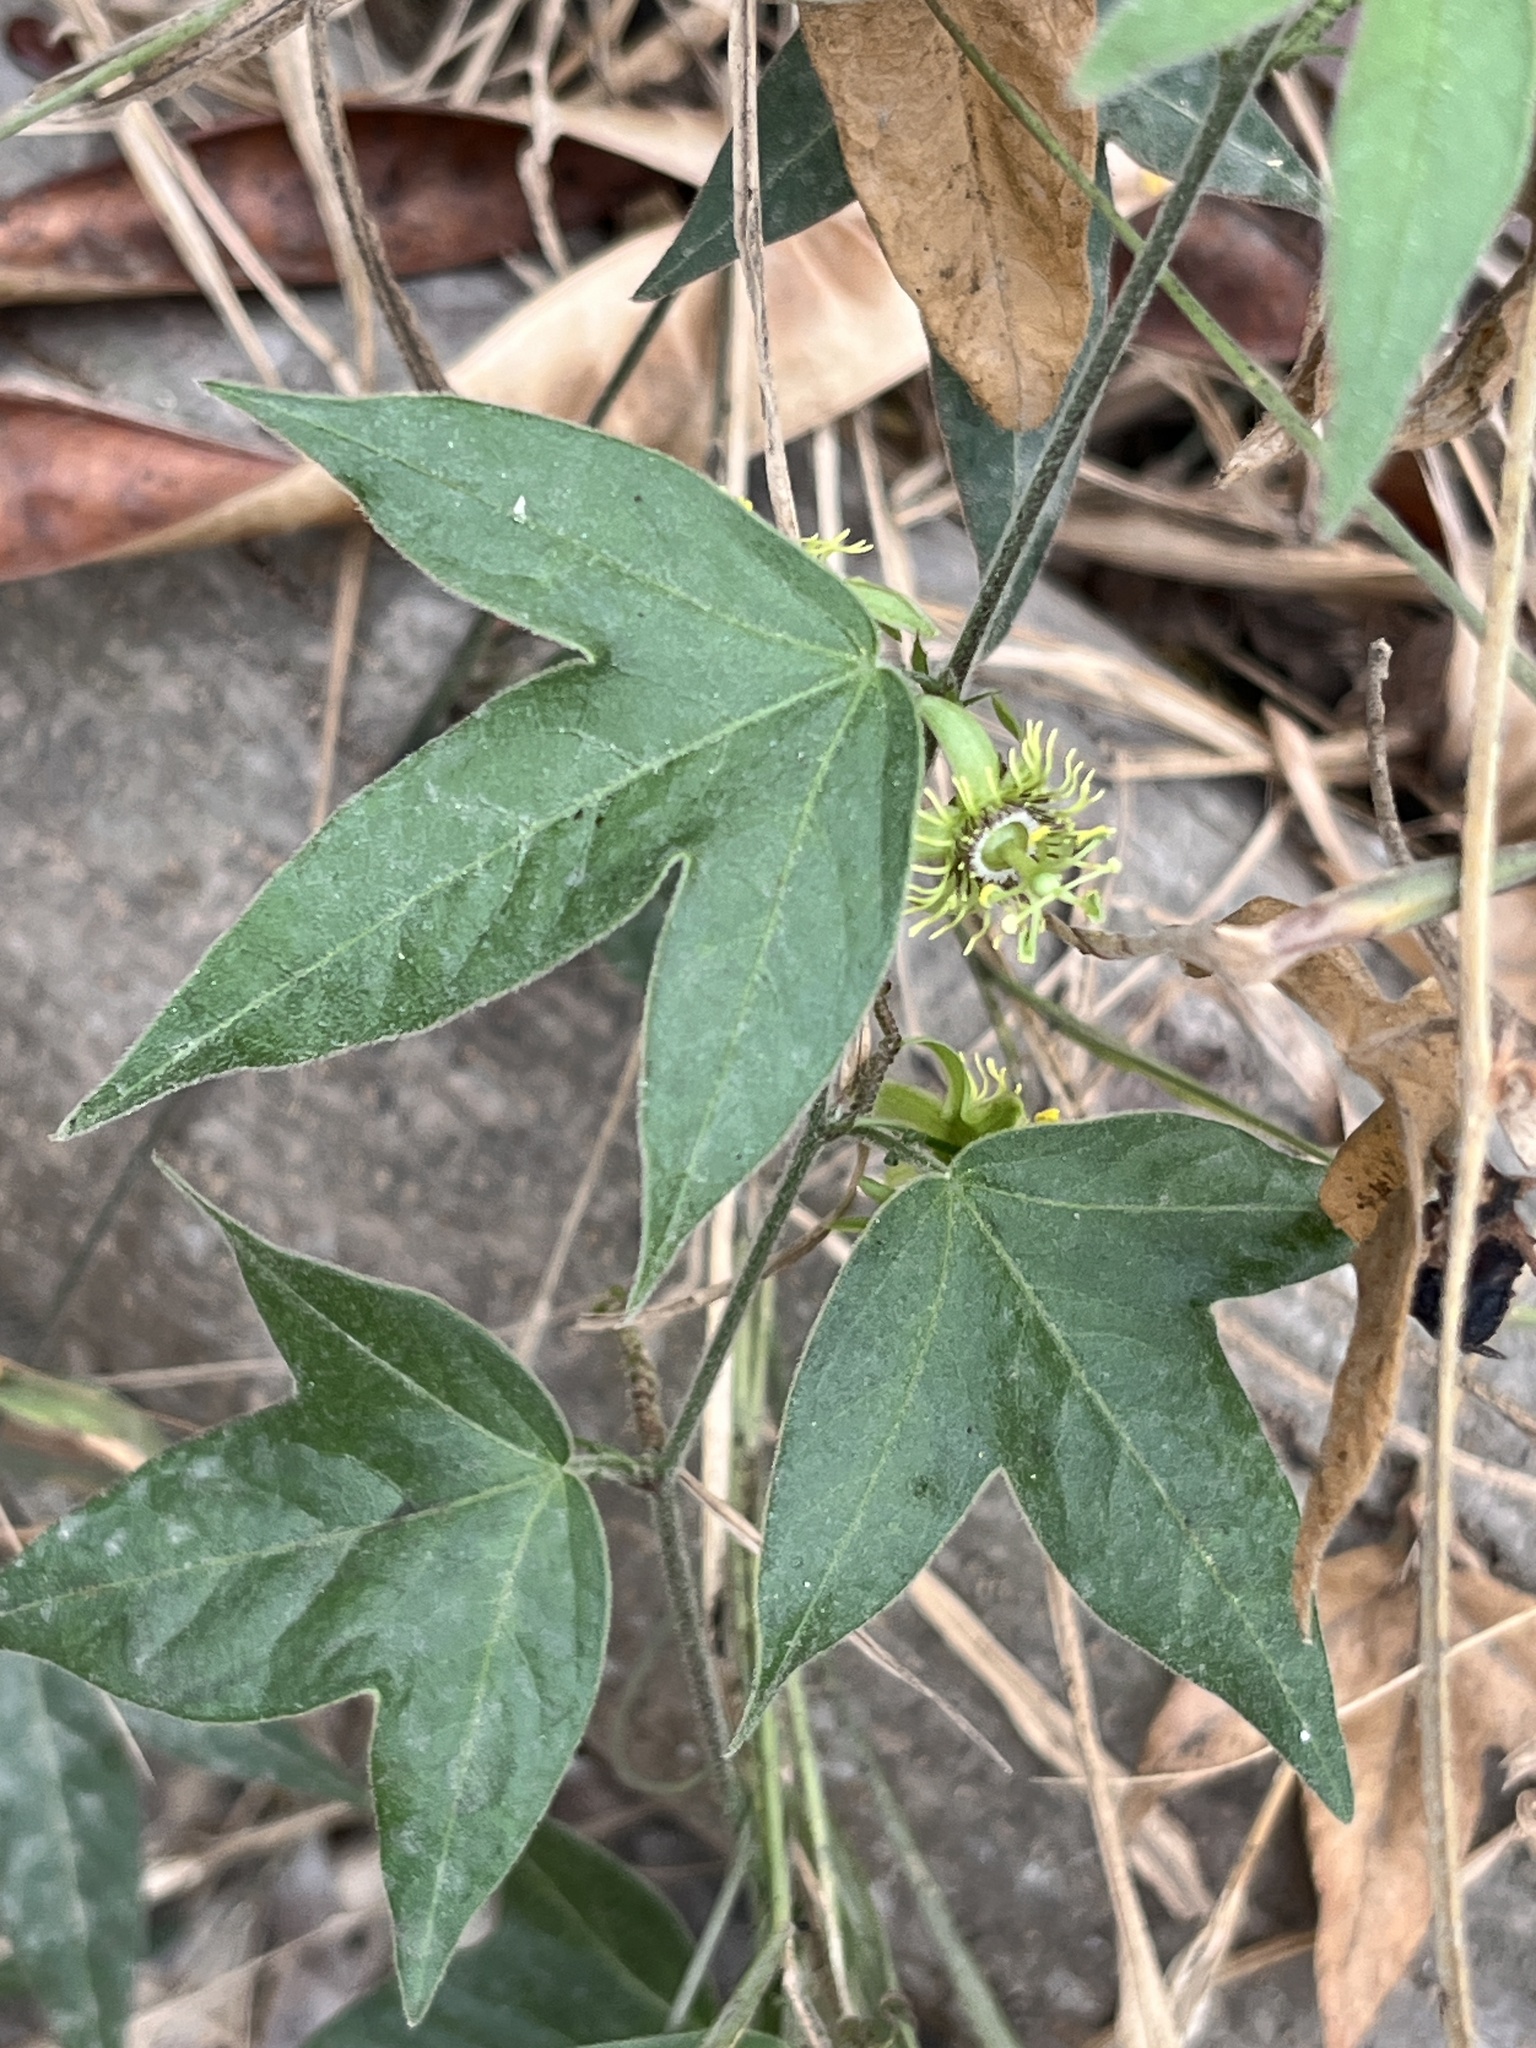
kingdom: Plantae
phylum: Tracheophyta
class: Magnoliopsida
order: Malpighiales
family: Passifloraceae
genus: Passiflora
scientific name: Passiflora suberosa
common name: Wild passionfruit
